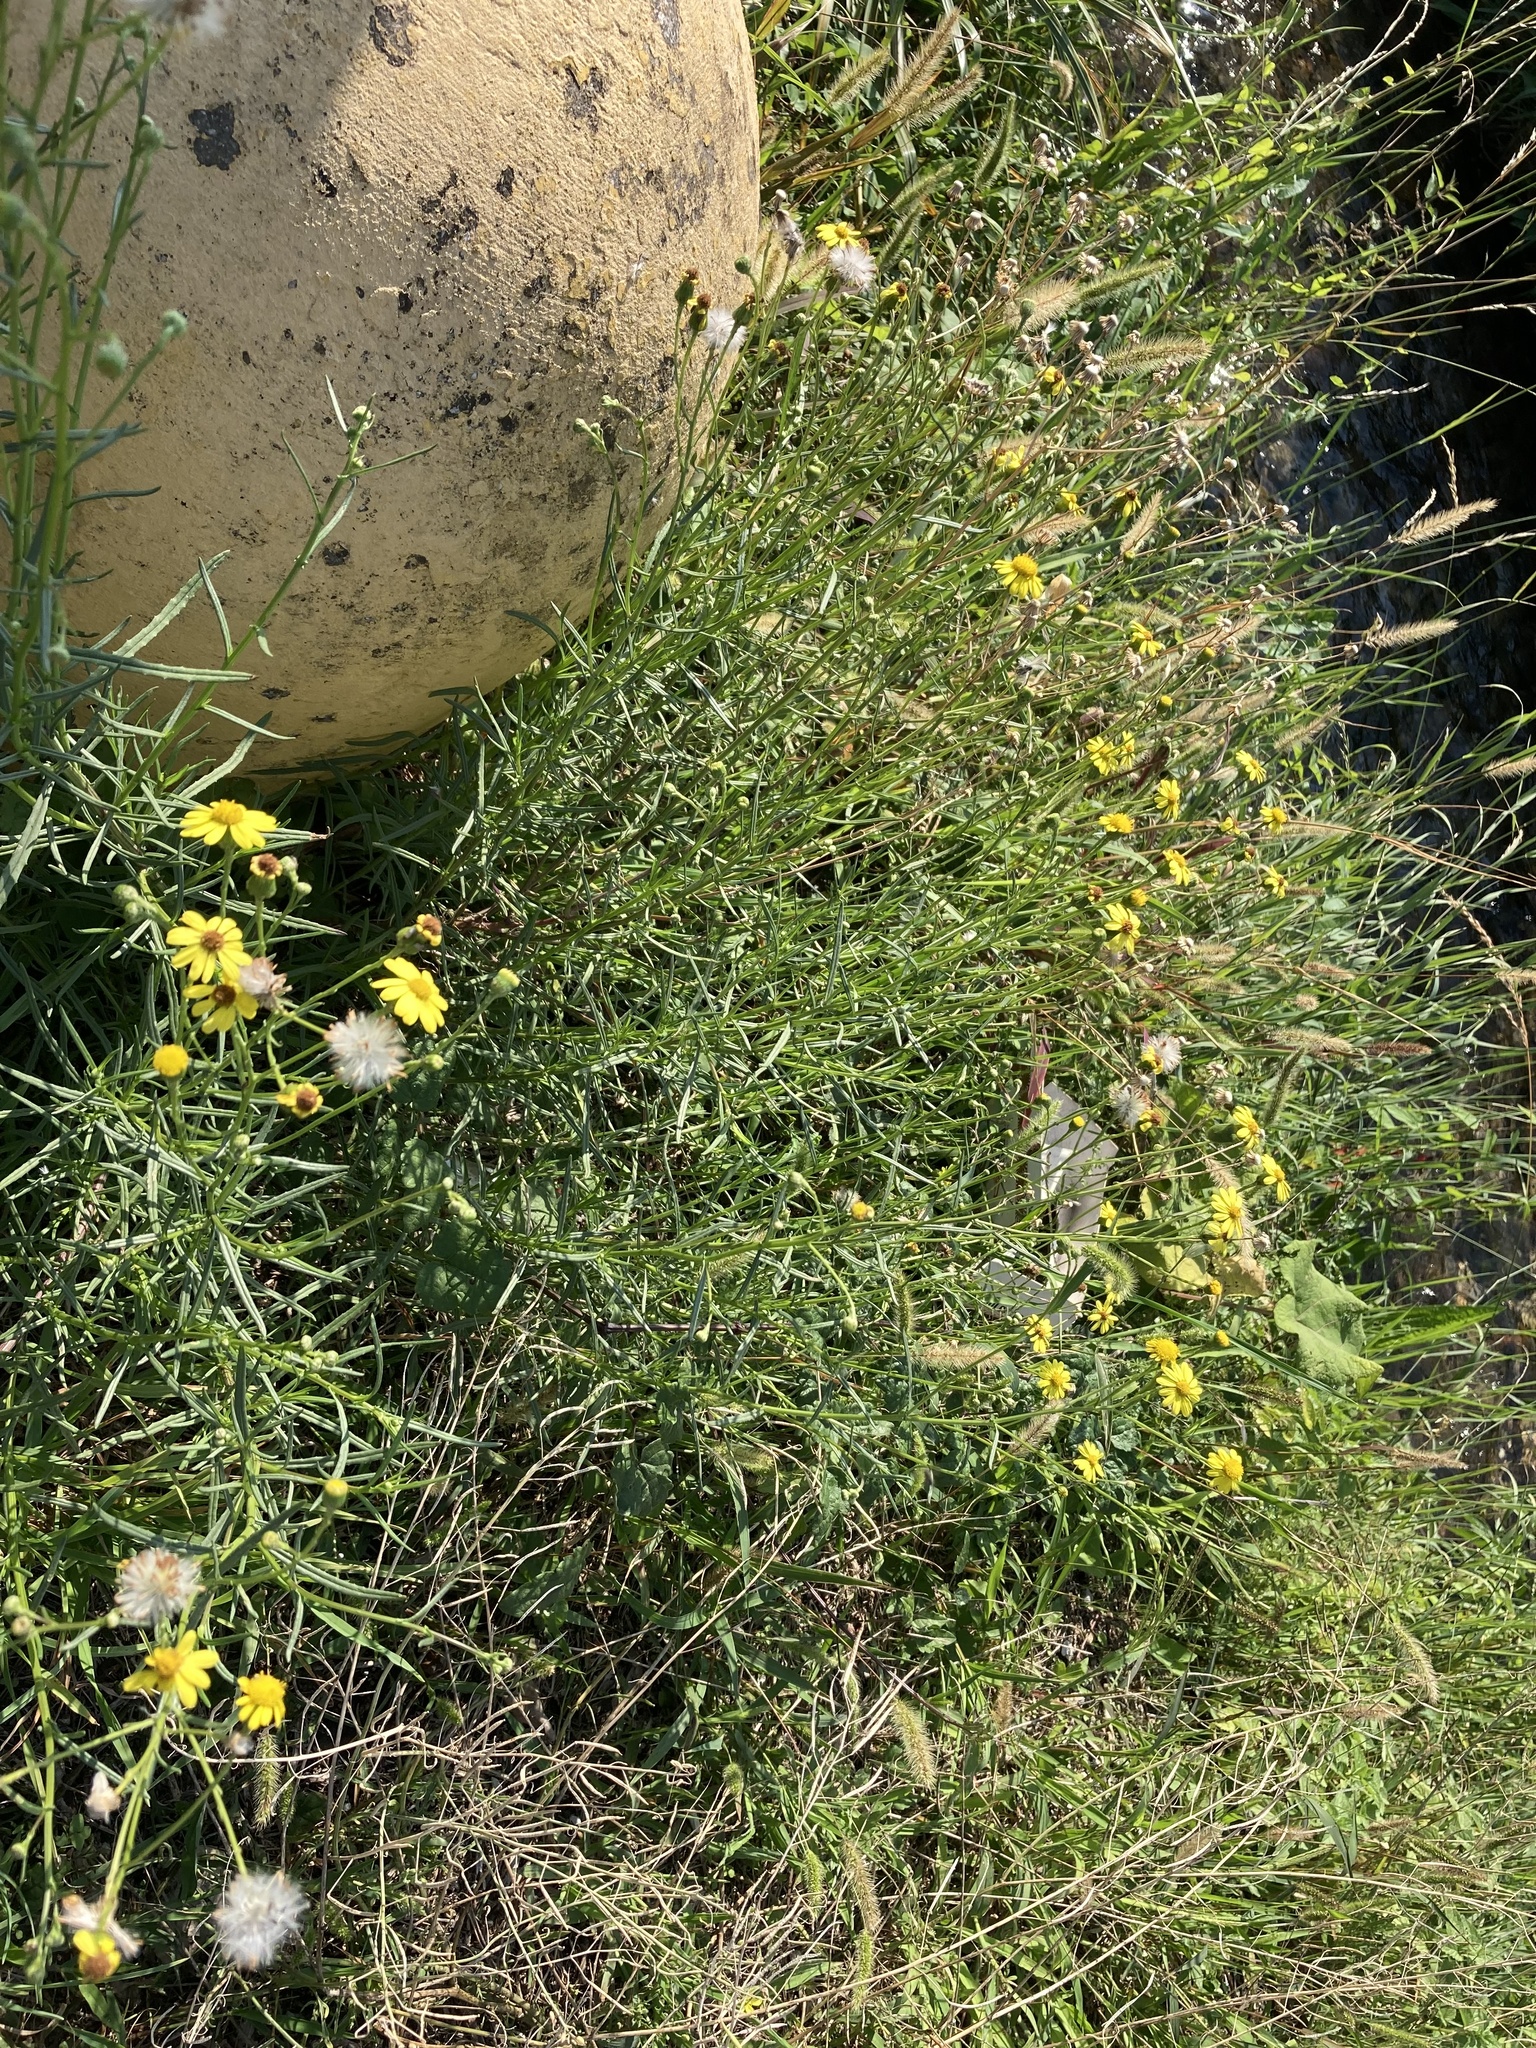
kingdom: Plantae
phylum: Tracheophyta
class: Magnoliopsida
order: Asterales
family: Asteraceae
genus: Senecio
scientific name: Senecio inaequidens
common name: Narrow-leaved ragwort
